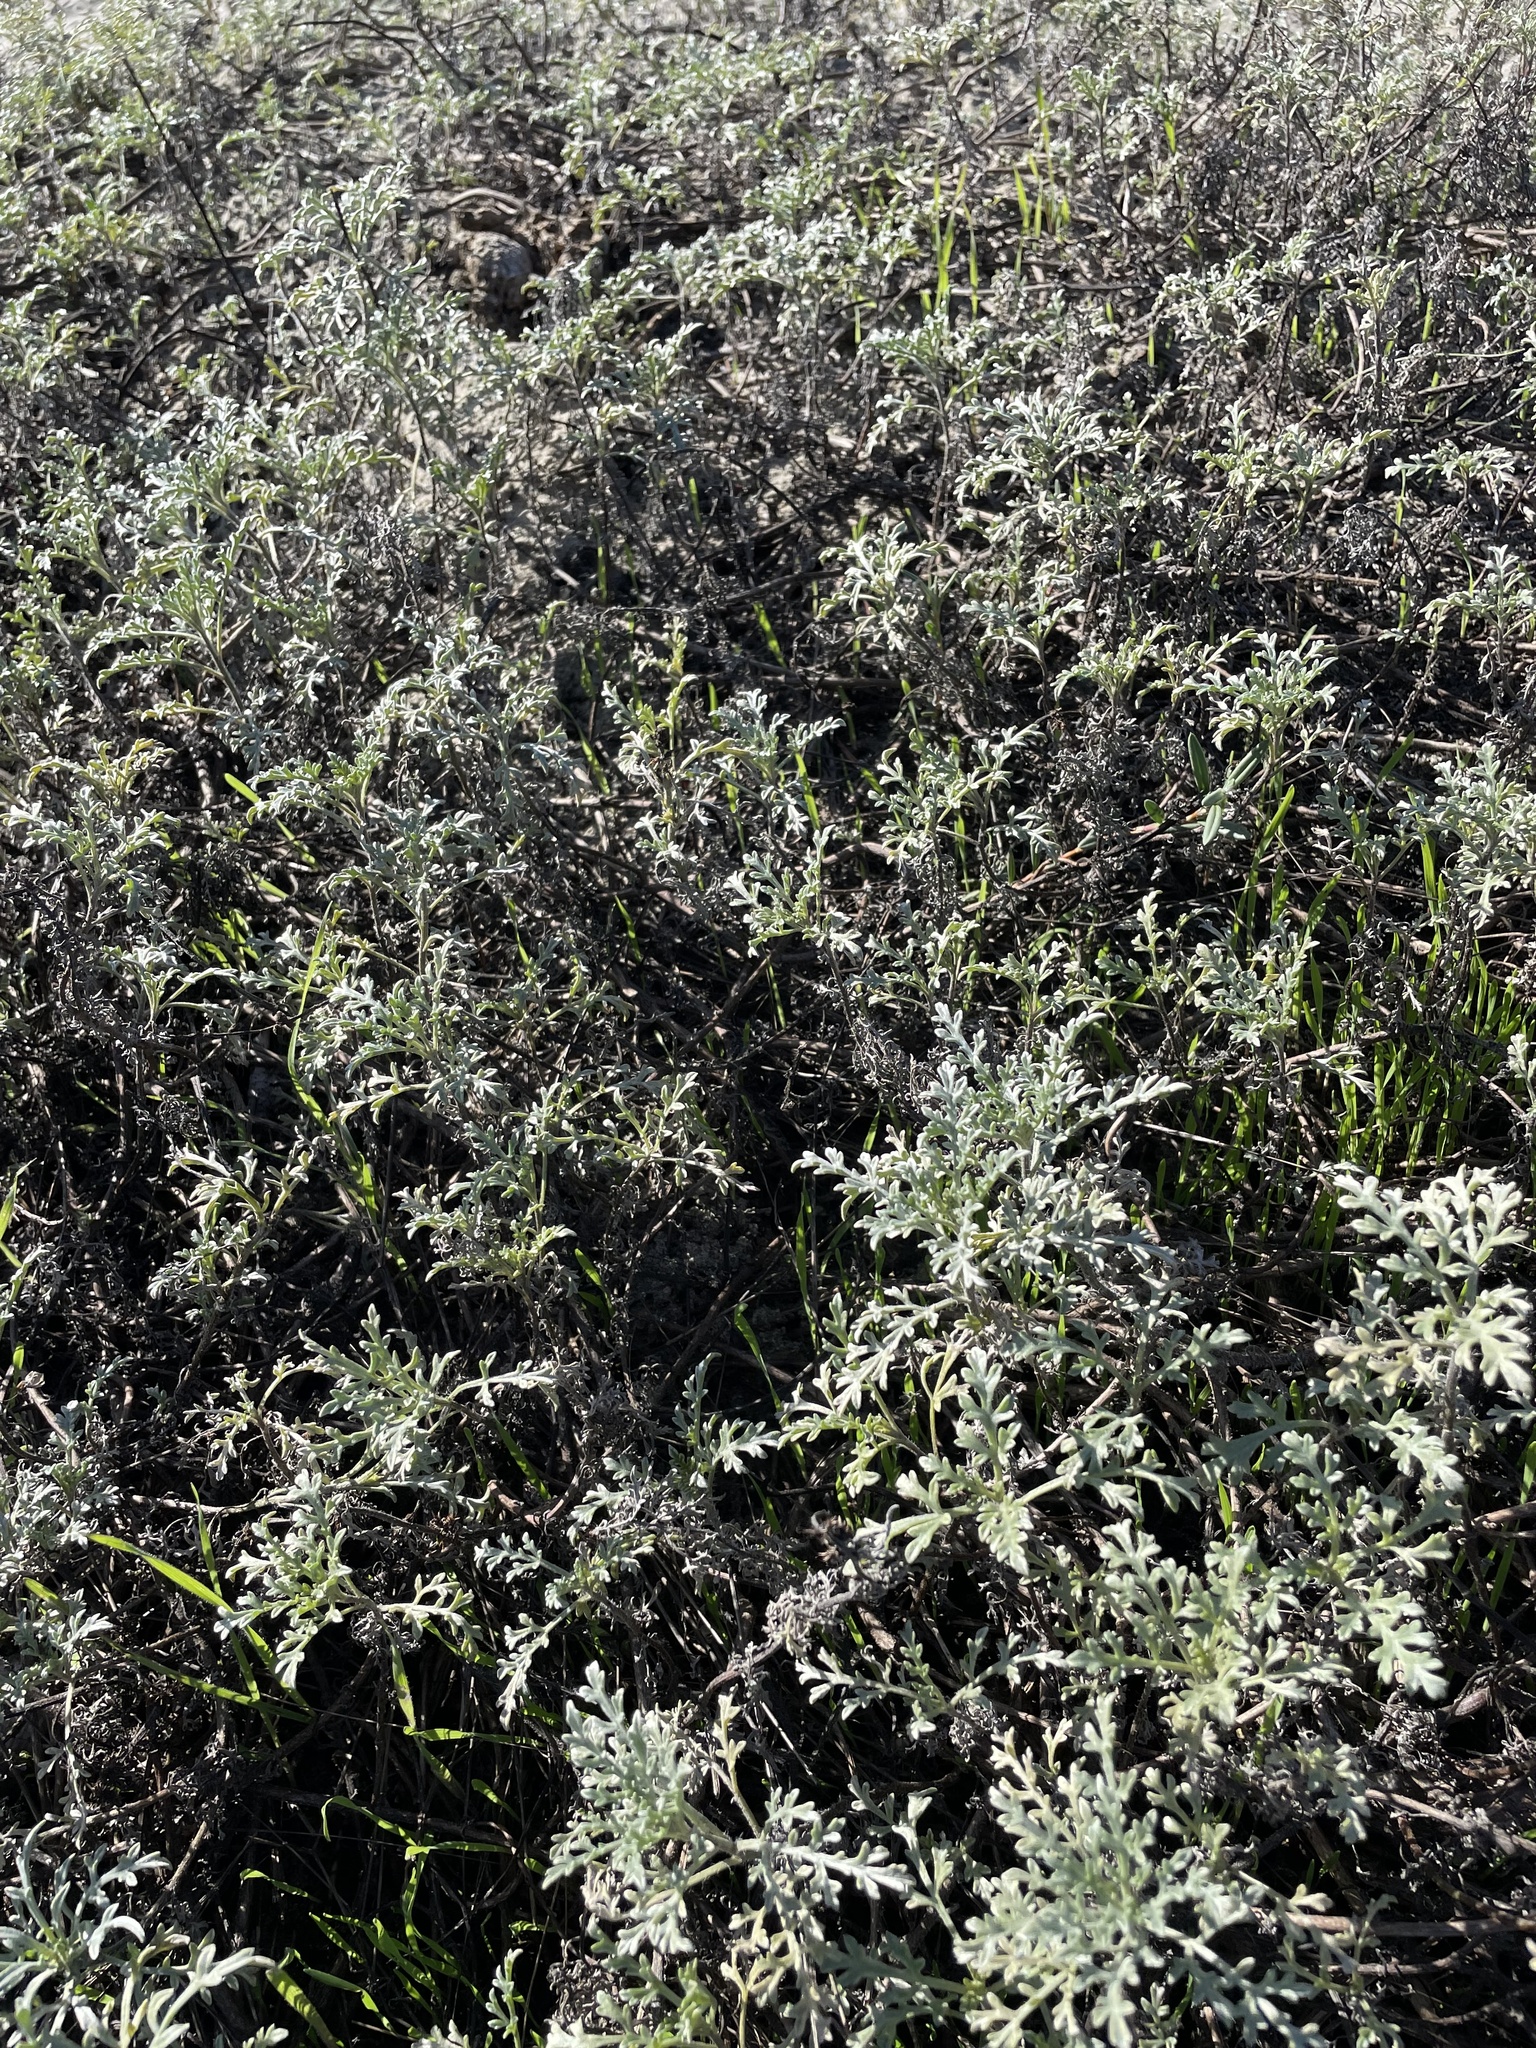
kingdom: Plantae
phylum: Tracheophyta
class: Magnoliopsida
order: Asterales
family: Asteraceae
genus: Ambrosia
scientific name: Ambrosia chamissonis
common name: Beachbur
